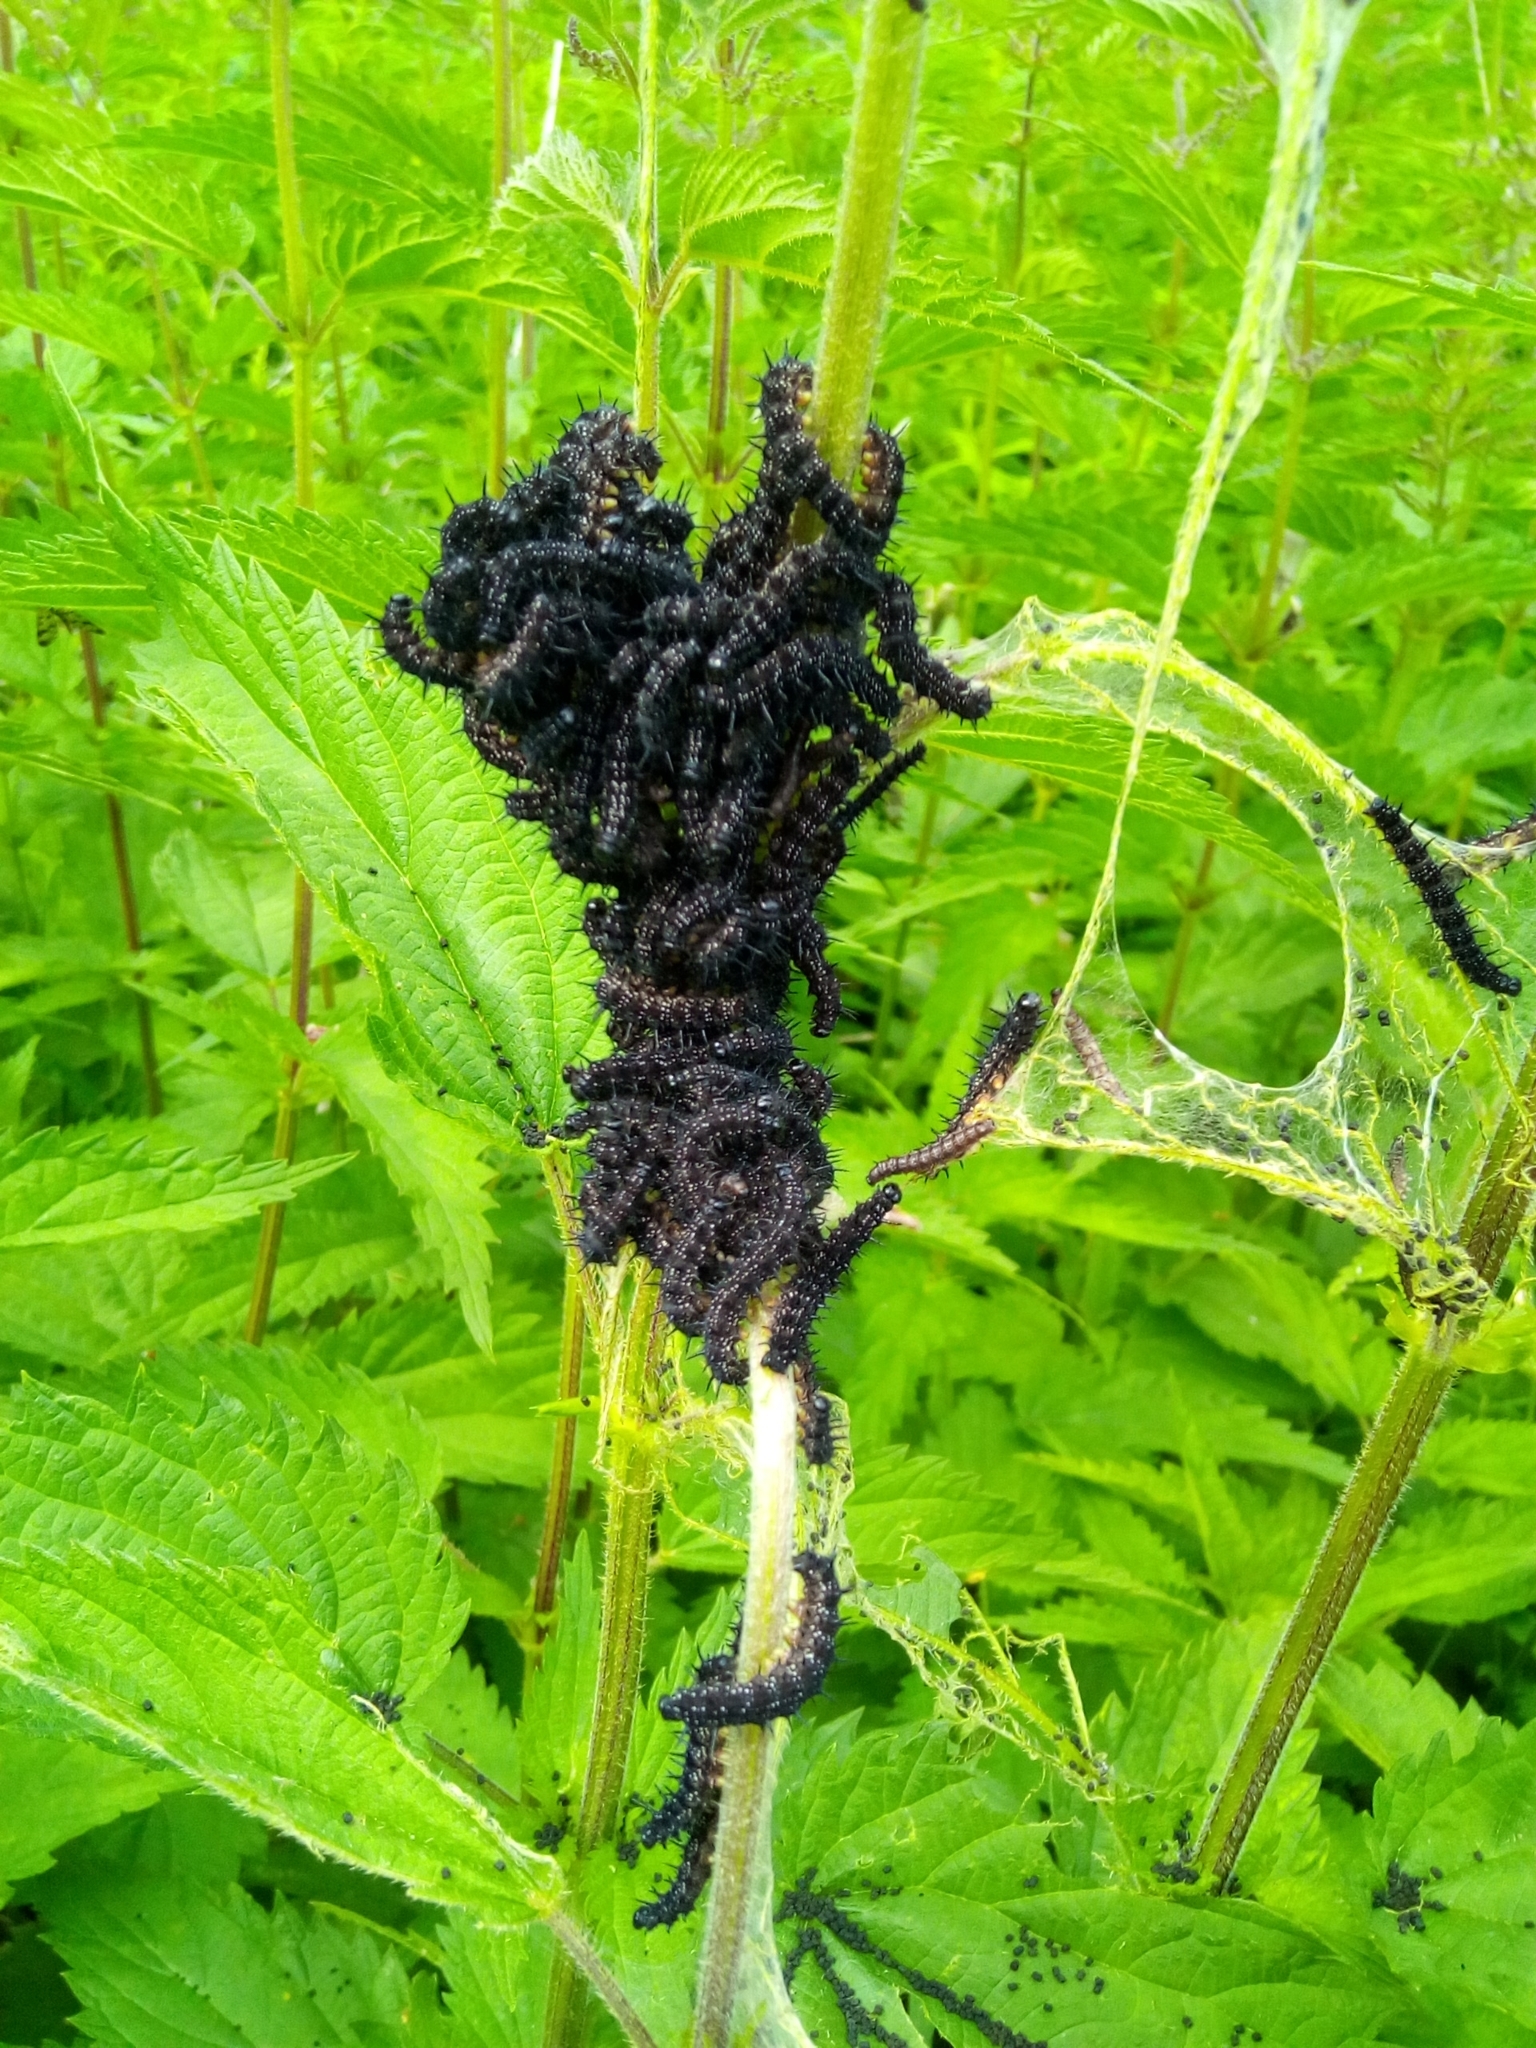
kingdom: Animalia
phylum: Arthropoda
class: Insecta
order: Lepidoptera
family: Nymphalidae
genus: Aglais
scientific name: Aglais io
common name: Peacock
